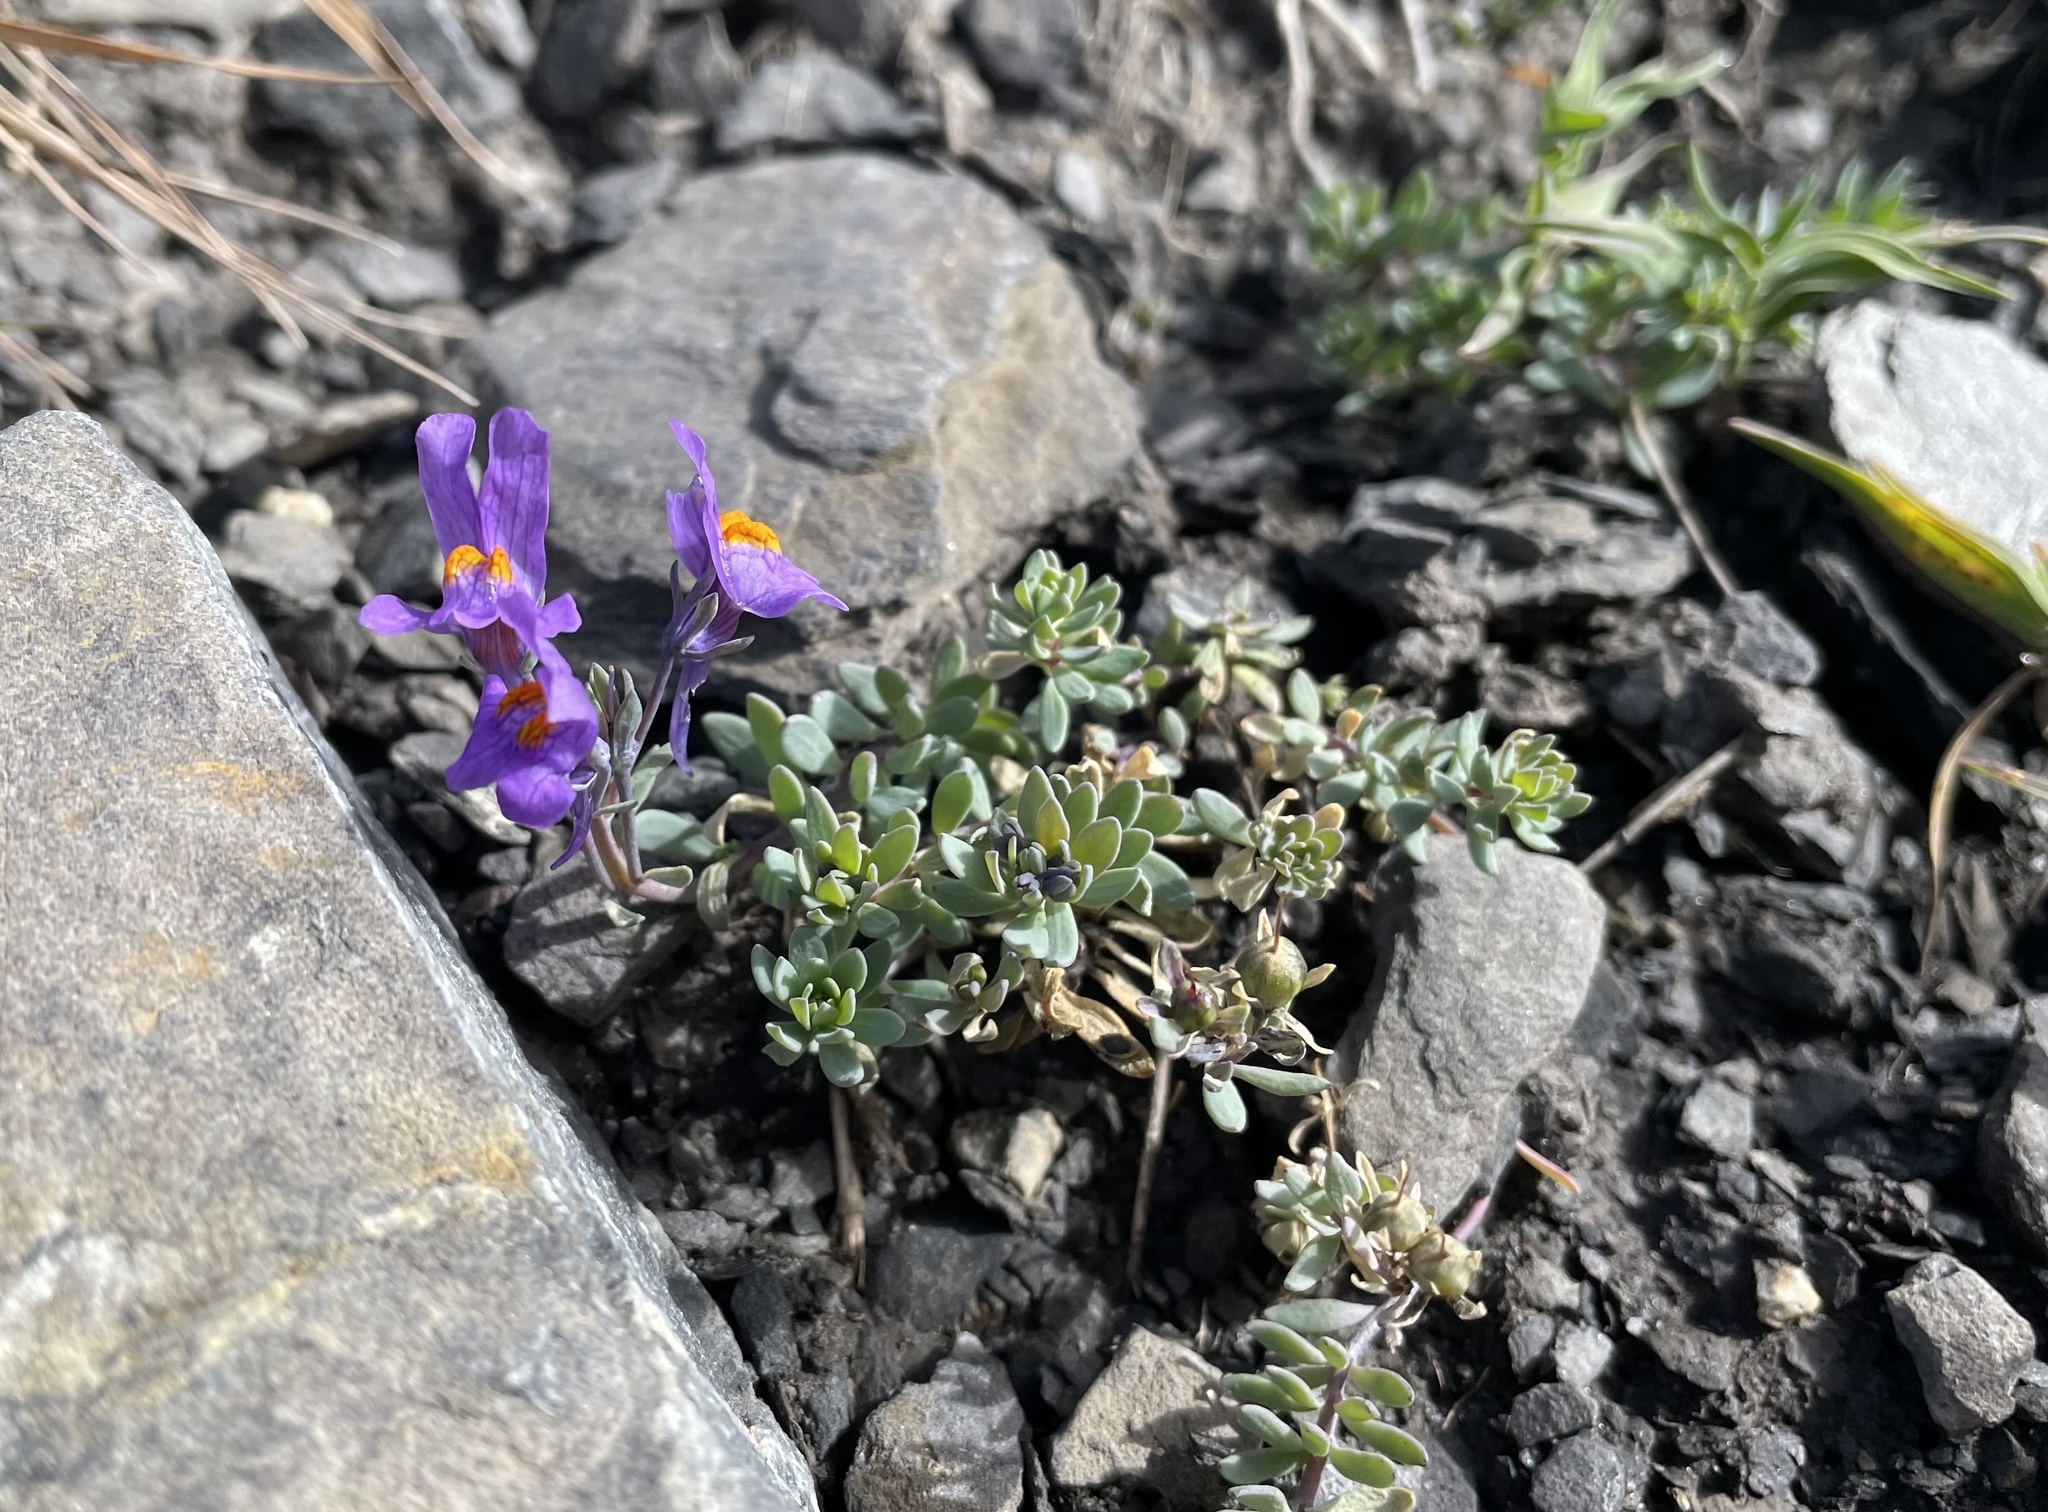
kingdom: Plantae
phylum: Tracheophyta
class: Magnoliopsida
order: Lamiales
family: Plantaginaceae
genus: Linaria
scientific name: Linaria alpina
